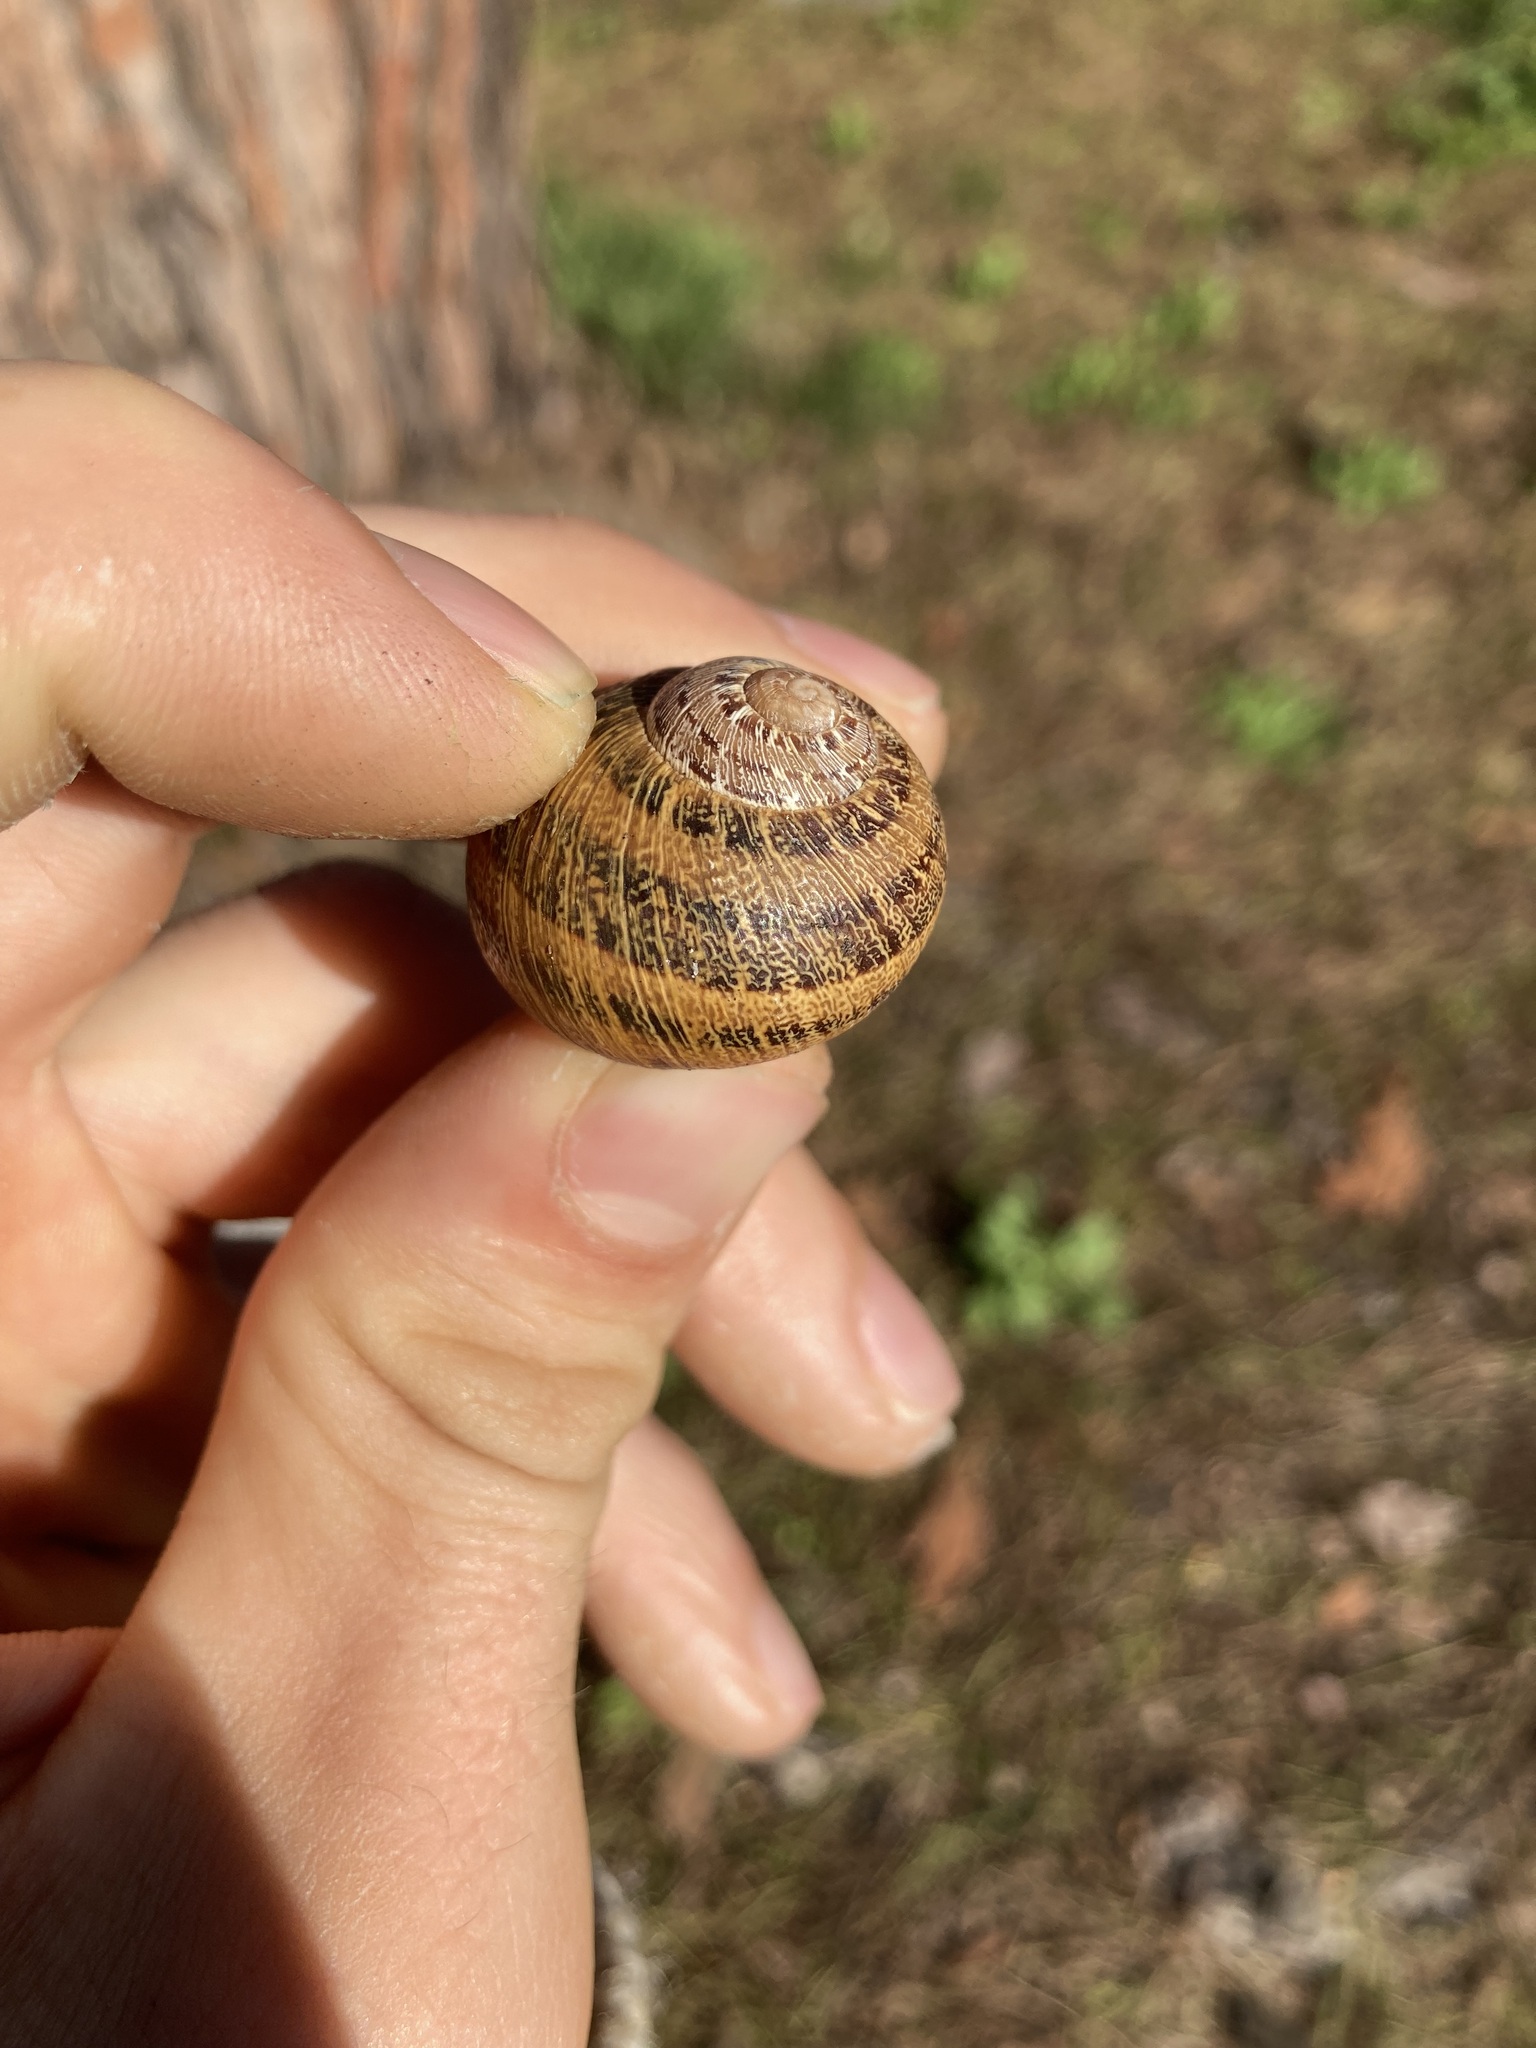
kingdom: Animalia
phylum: Mollusca
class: Gastropoda
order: Stylommatophora
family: Helicidae
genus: Cornu
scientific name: Cornu aspersum
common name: Brown garden snail
